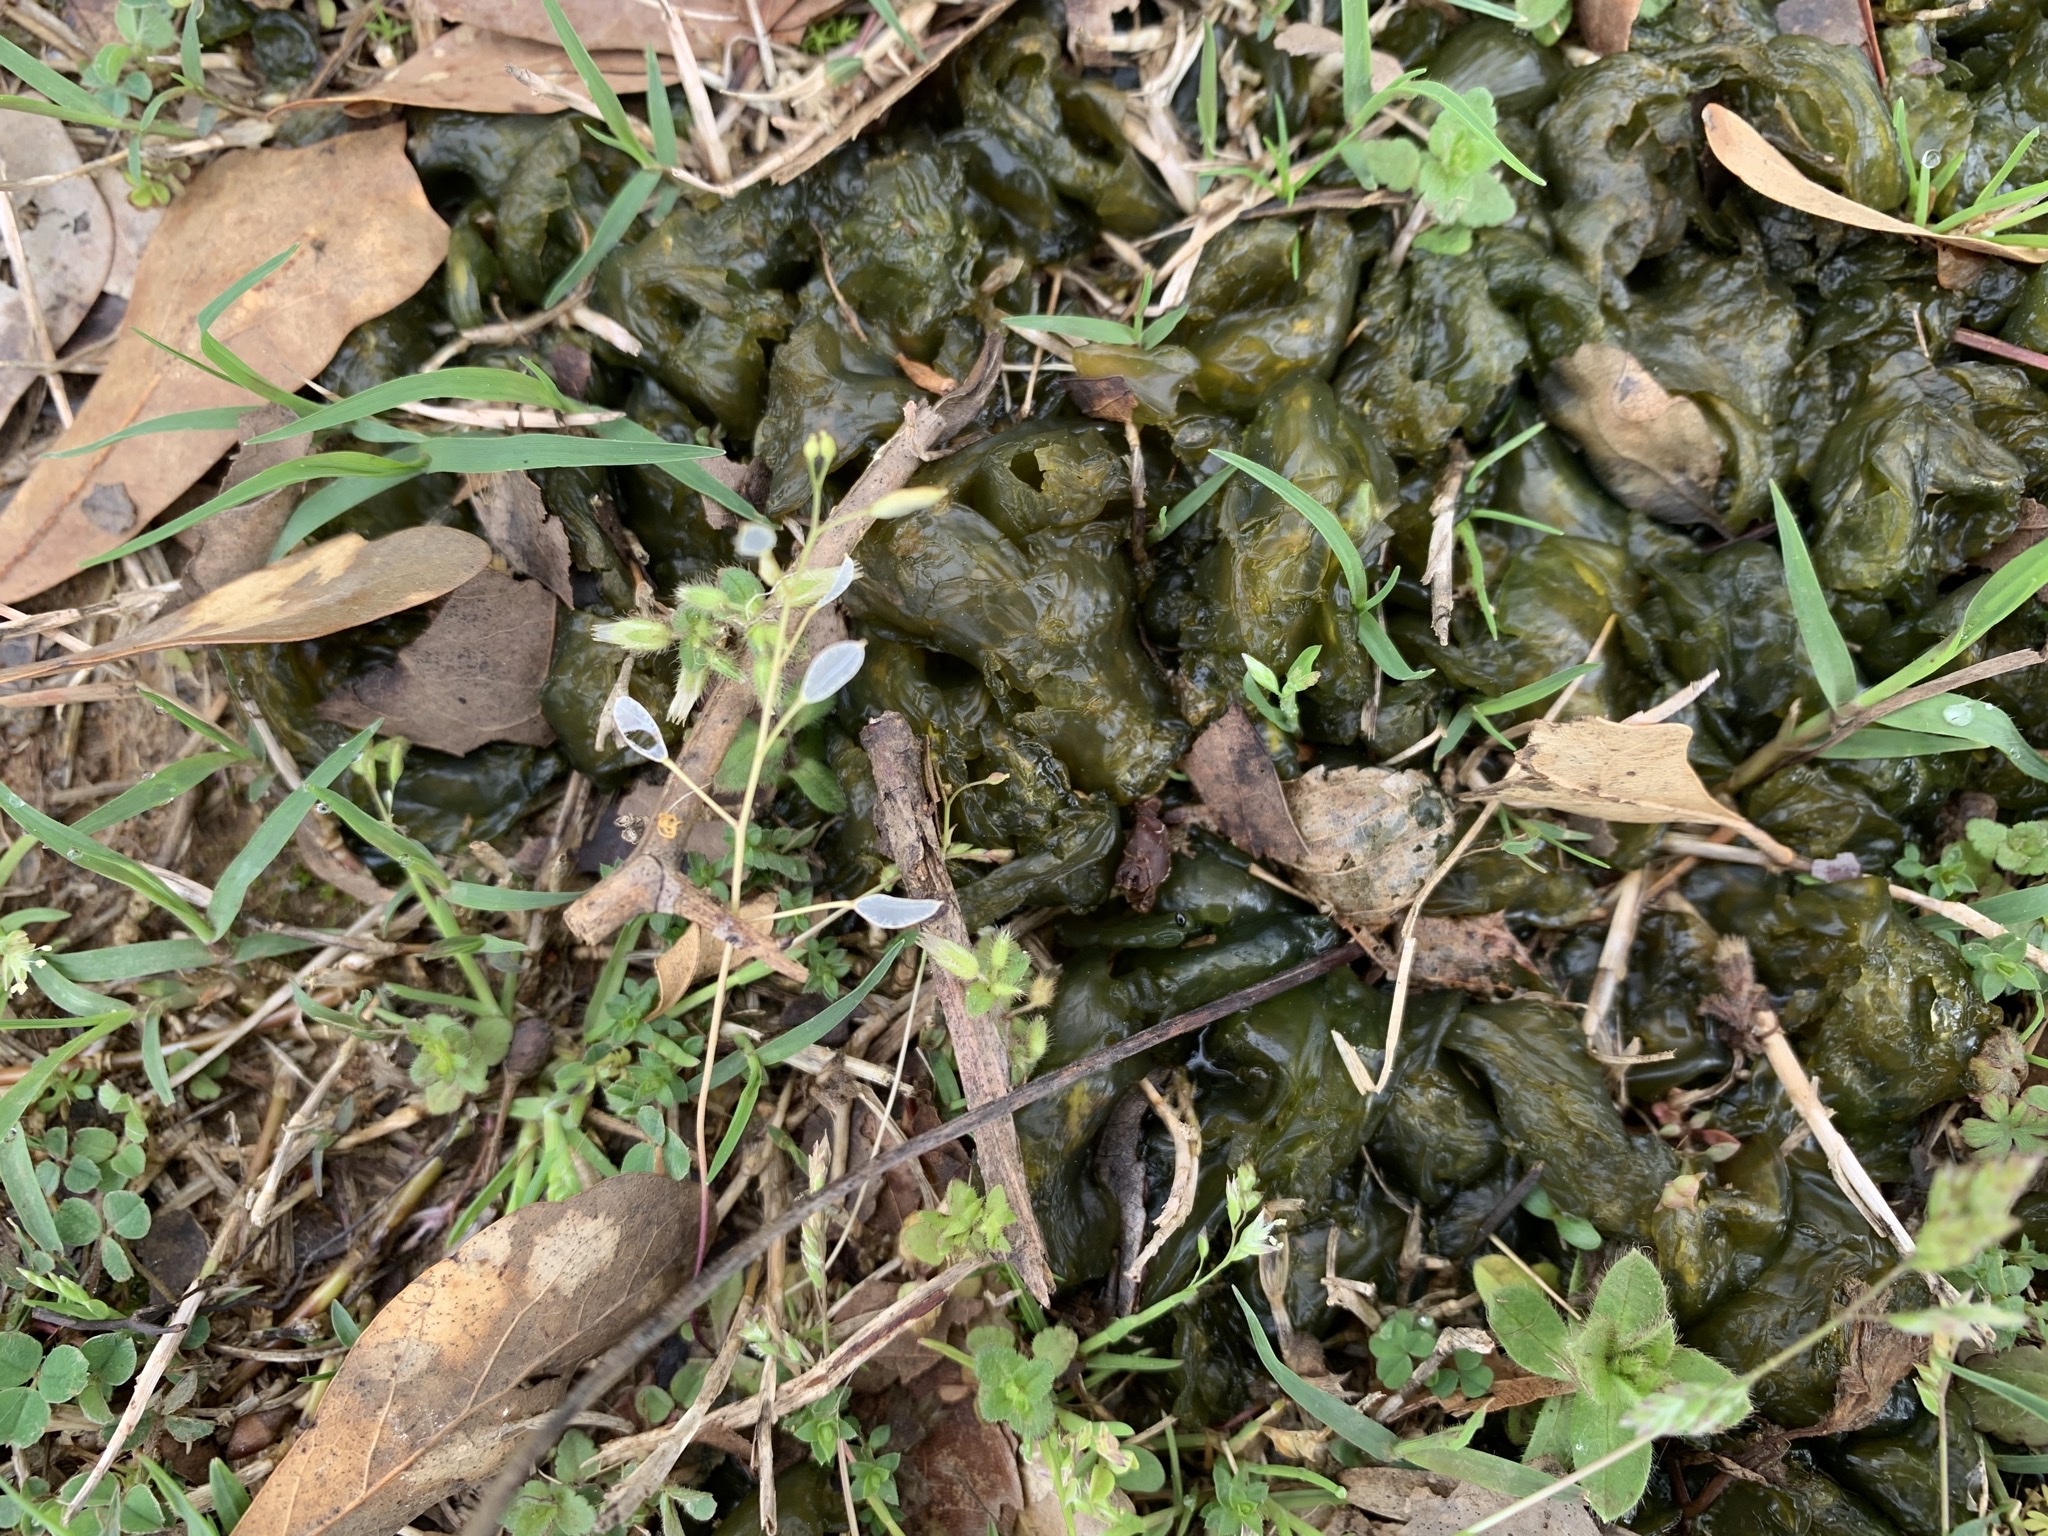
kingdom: Bacteria
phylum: Cyanobacteria
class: Cyanobacteriia
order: Cyanobacteriales
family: Nostocaceae
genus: Nostoc
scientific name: Nostoc commune
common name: Star jelly
